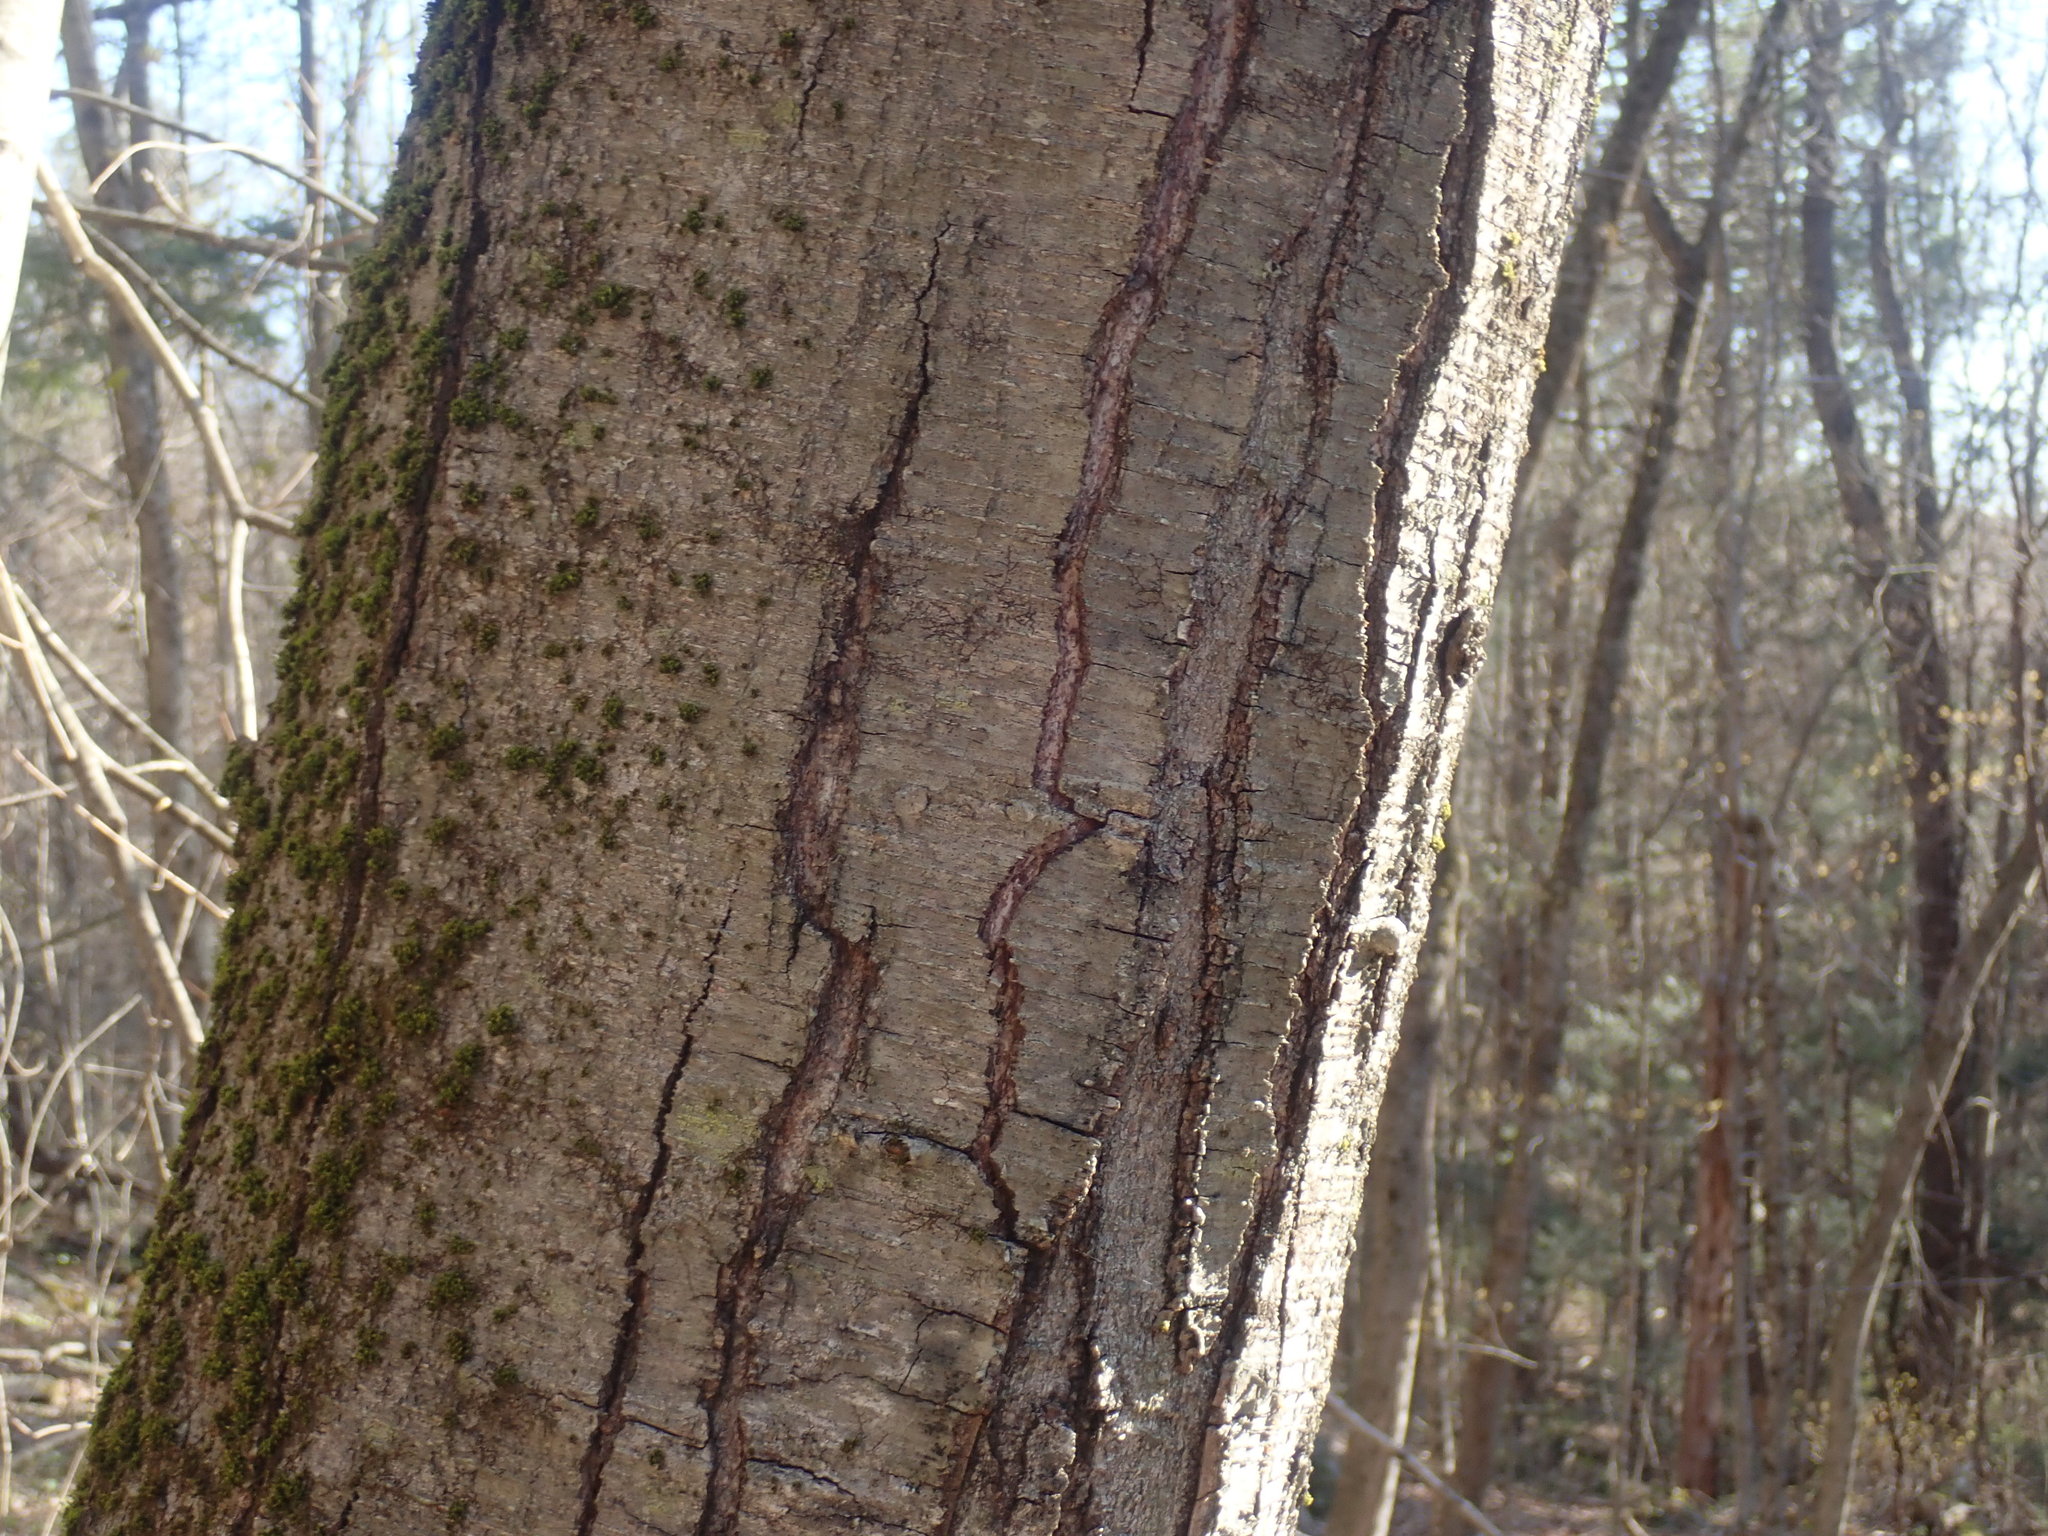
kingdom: Plantae
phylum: Tracheophyta
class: Magnoliopsida
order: Fagales
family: Betulaceae
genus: Betula
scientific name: Betula lenta
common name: Black birch
